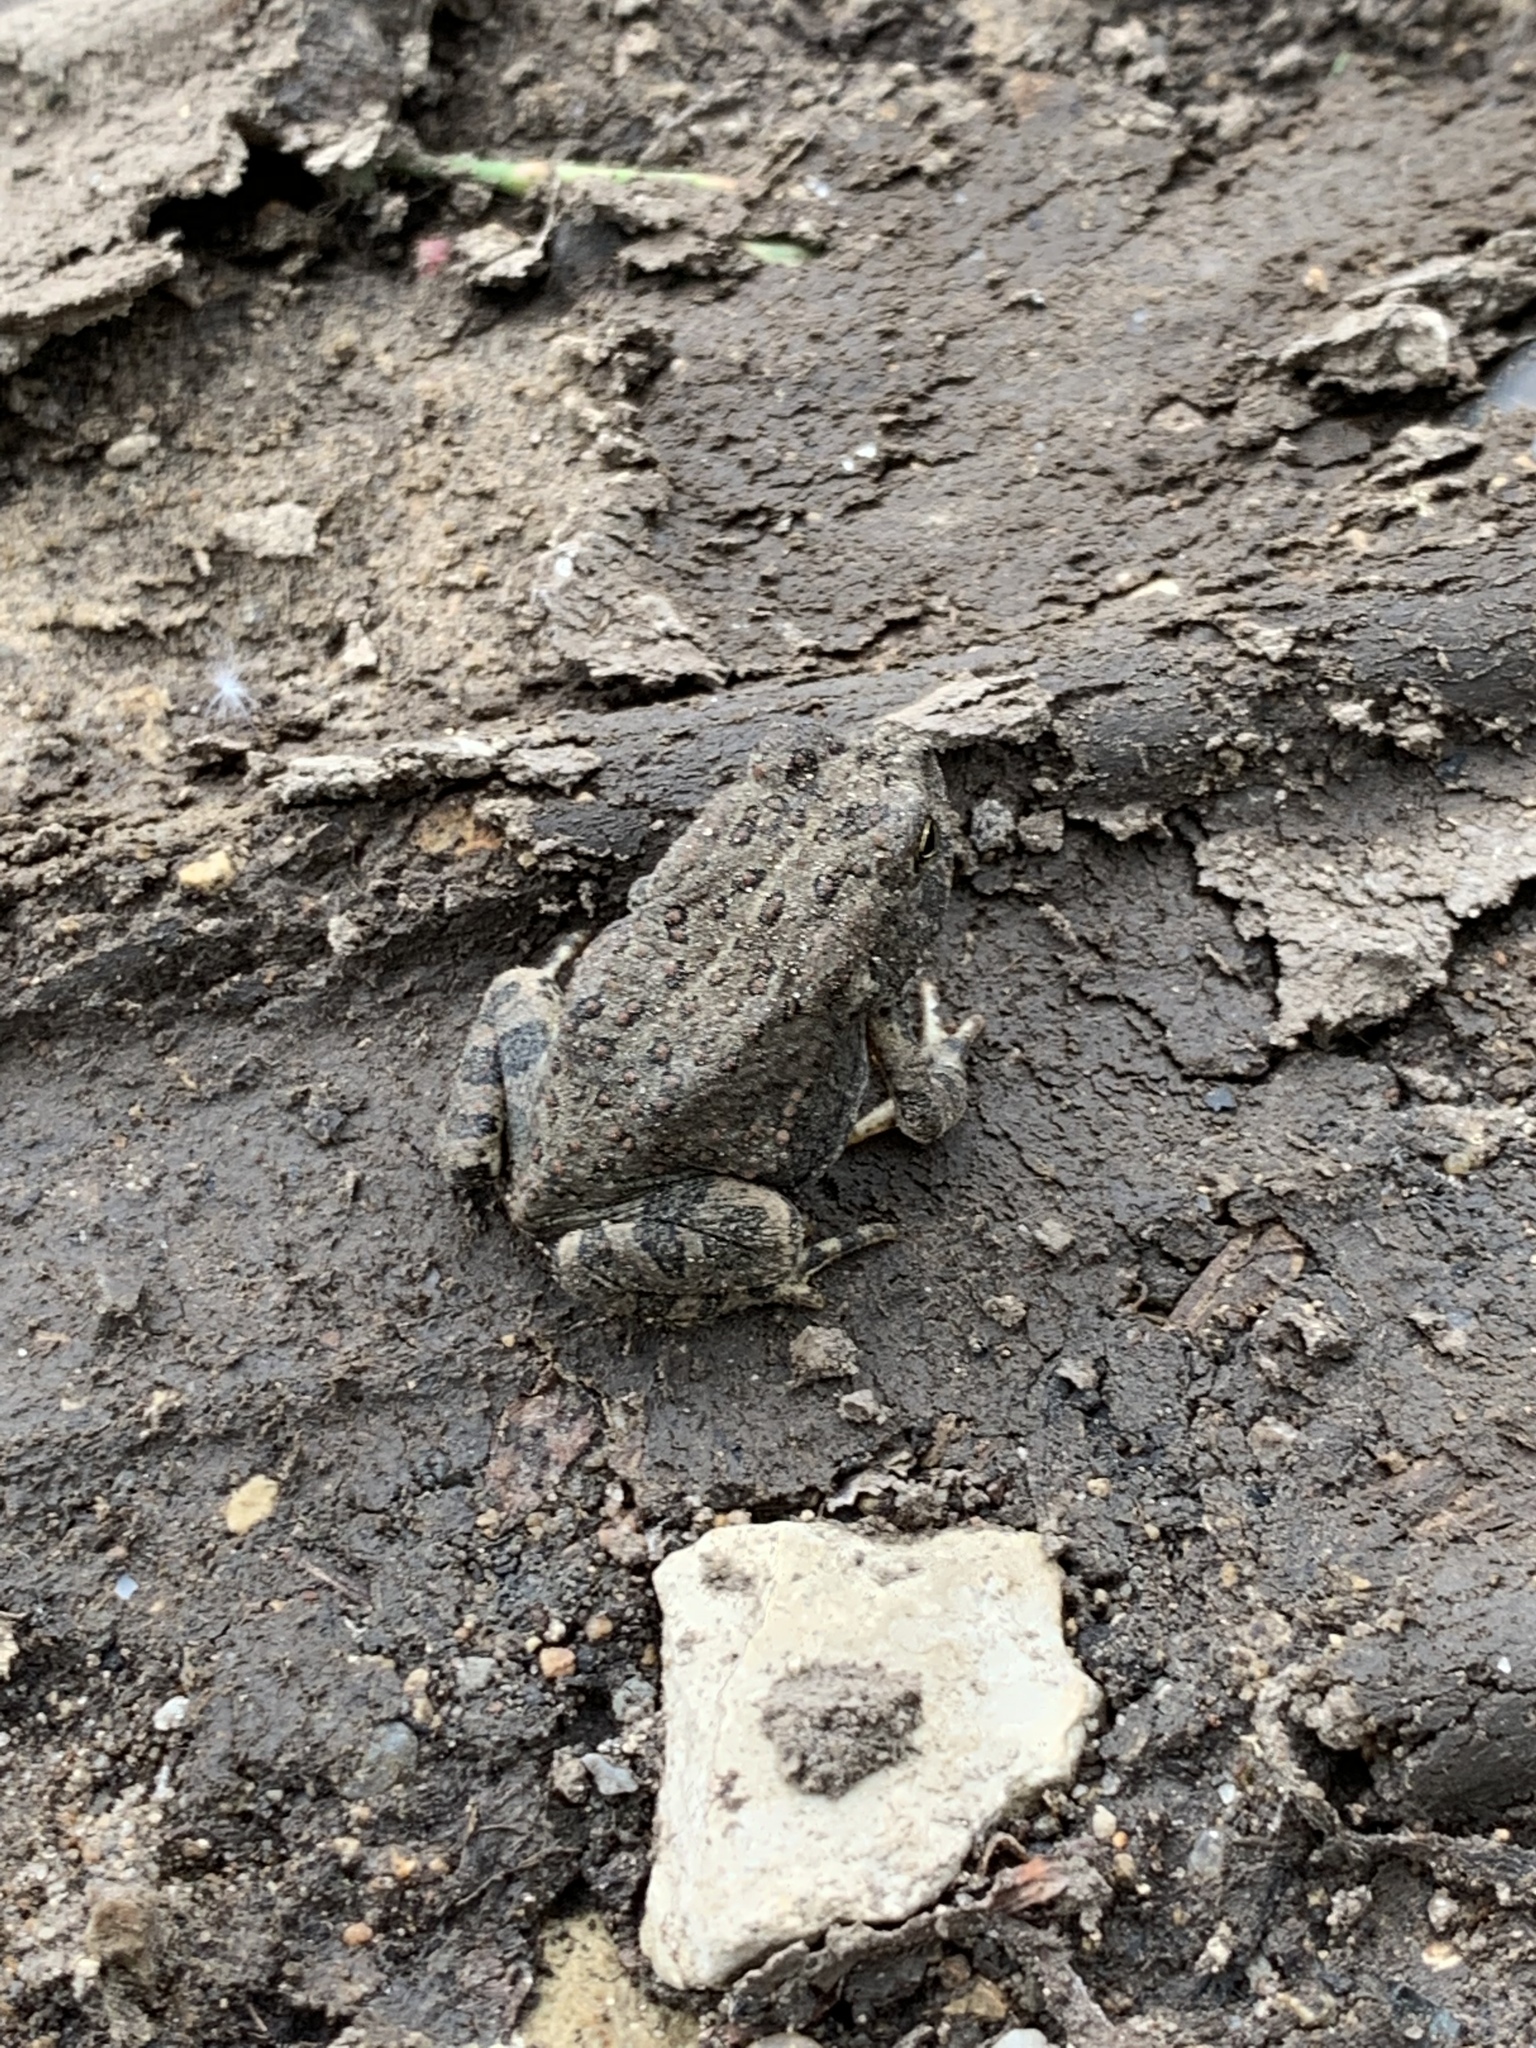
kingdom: Animalia
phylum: Chordata
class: Amphibia
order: Anura
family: Bufonidae
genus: Anaxyrus
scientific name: Anaxyrus woodhousii
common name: Woodhouse's toad
